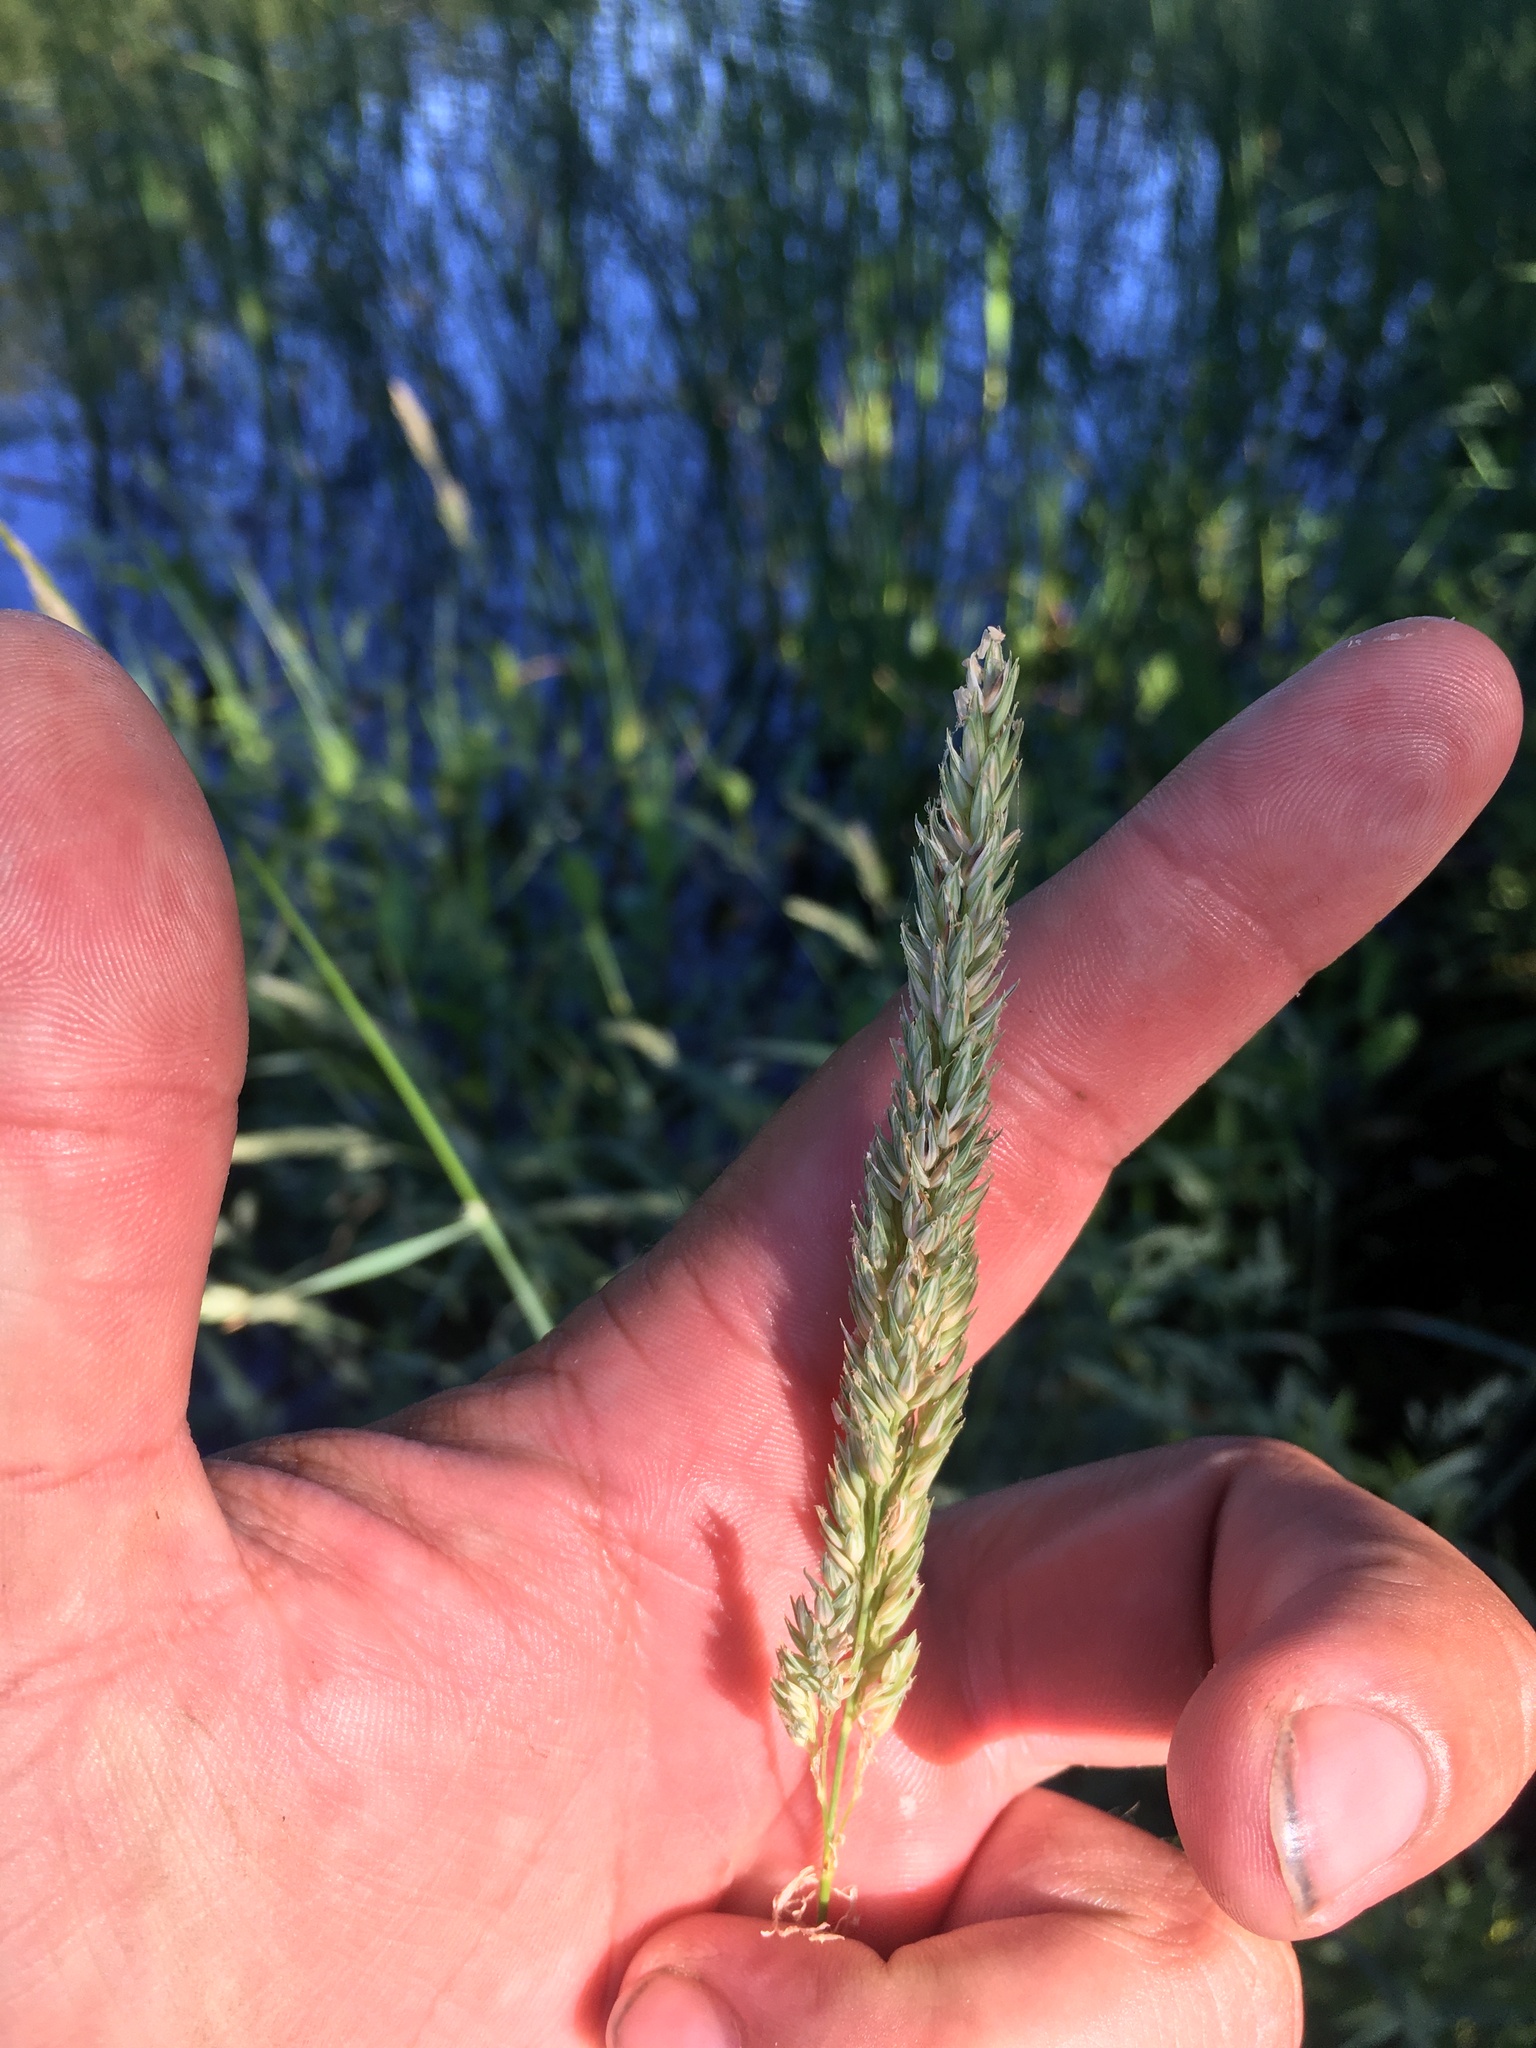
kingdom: Plantae
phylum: Tracheophyta
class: Liliopsida
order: Poales
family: Poaceae
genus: Phalaris
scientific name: Phalaris arundinacea
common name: Reed canary-grass
